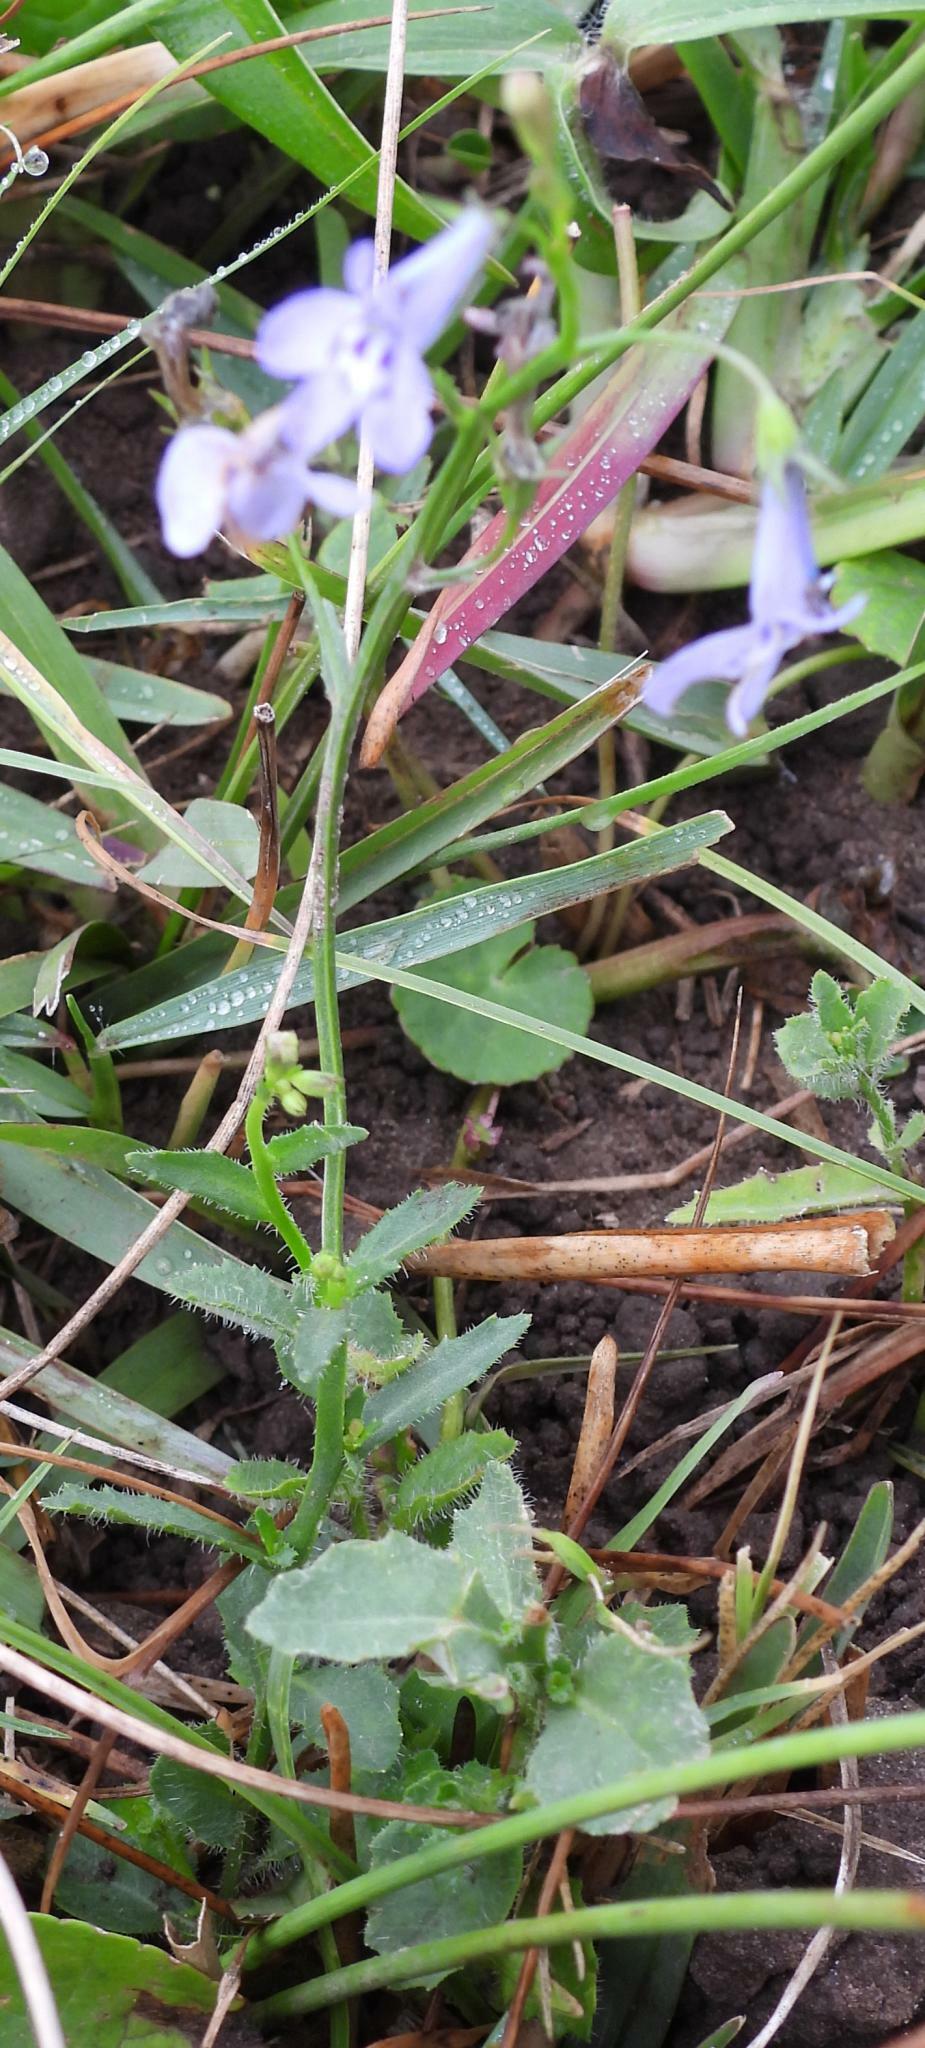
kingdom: Plantae
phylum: Tracheophyta
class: Magnoliopsida
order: Asterales
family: Campanulaceae
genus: Lobelia
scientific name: Lobelia flaccida
